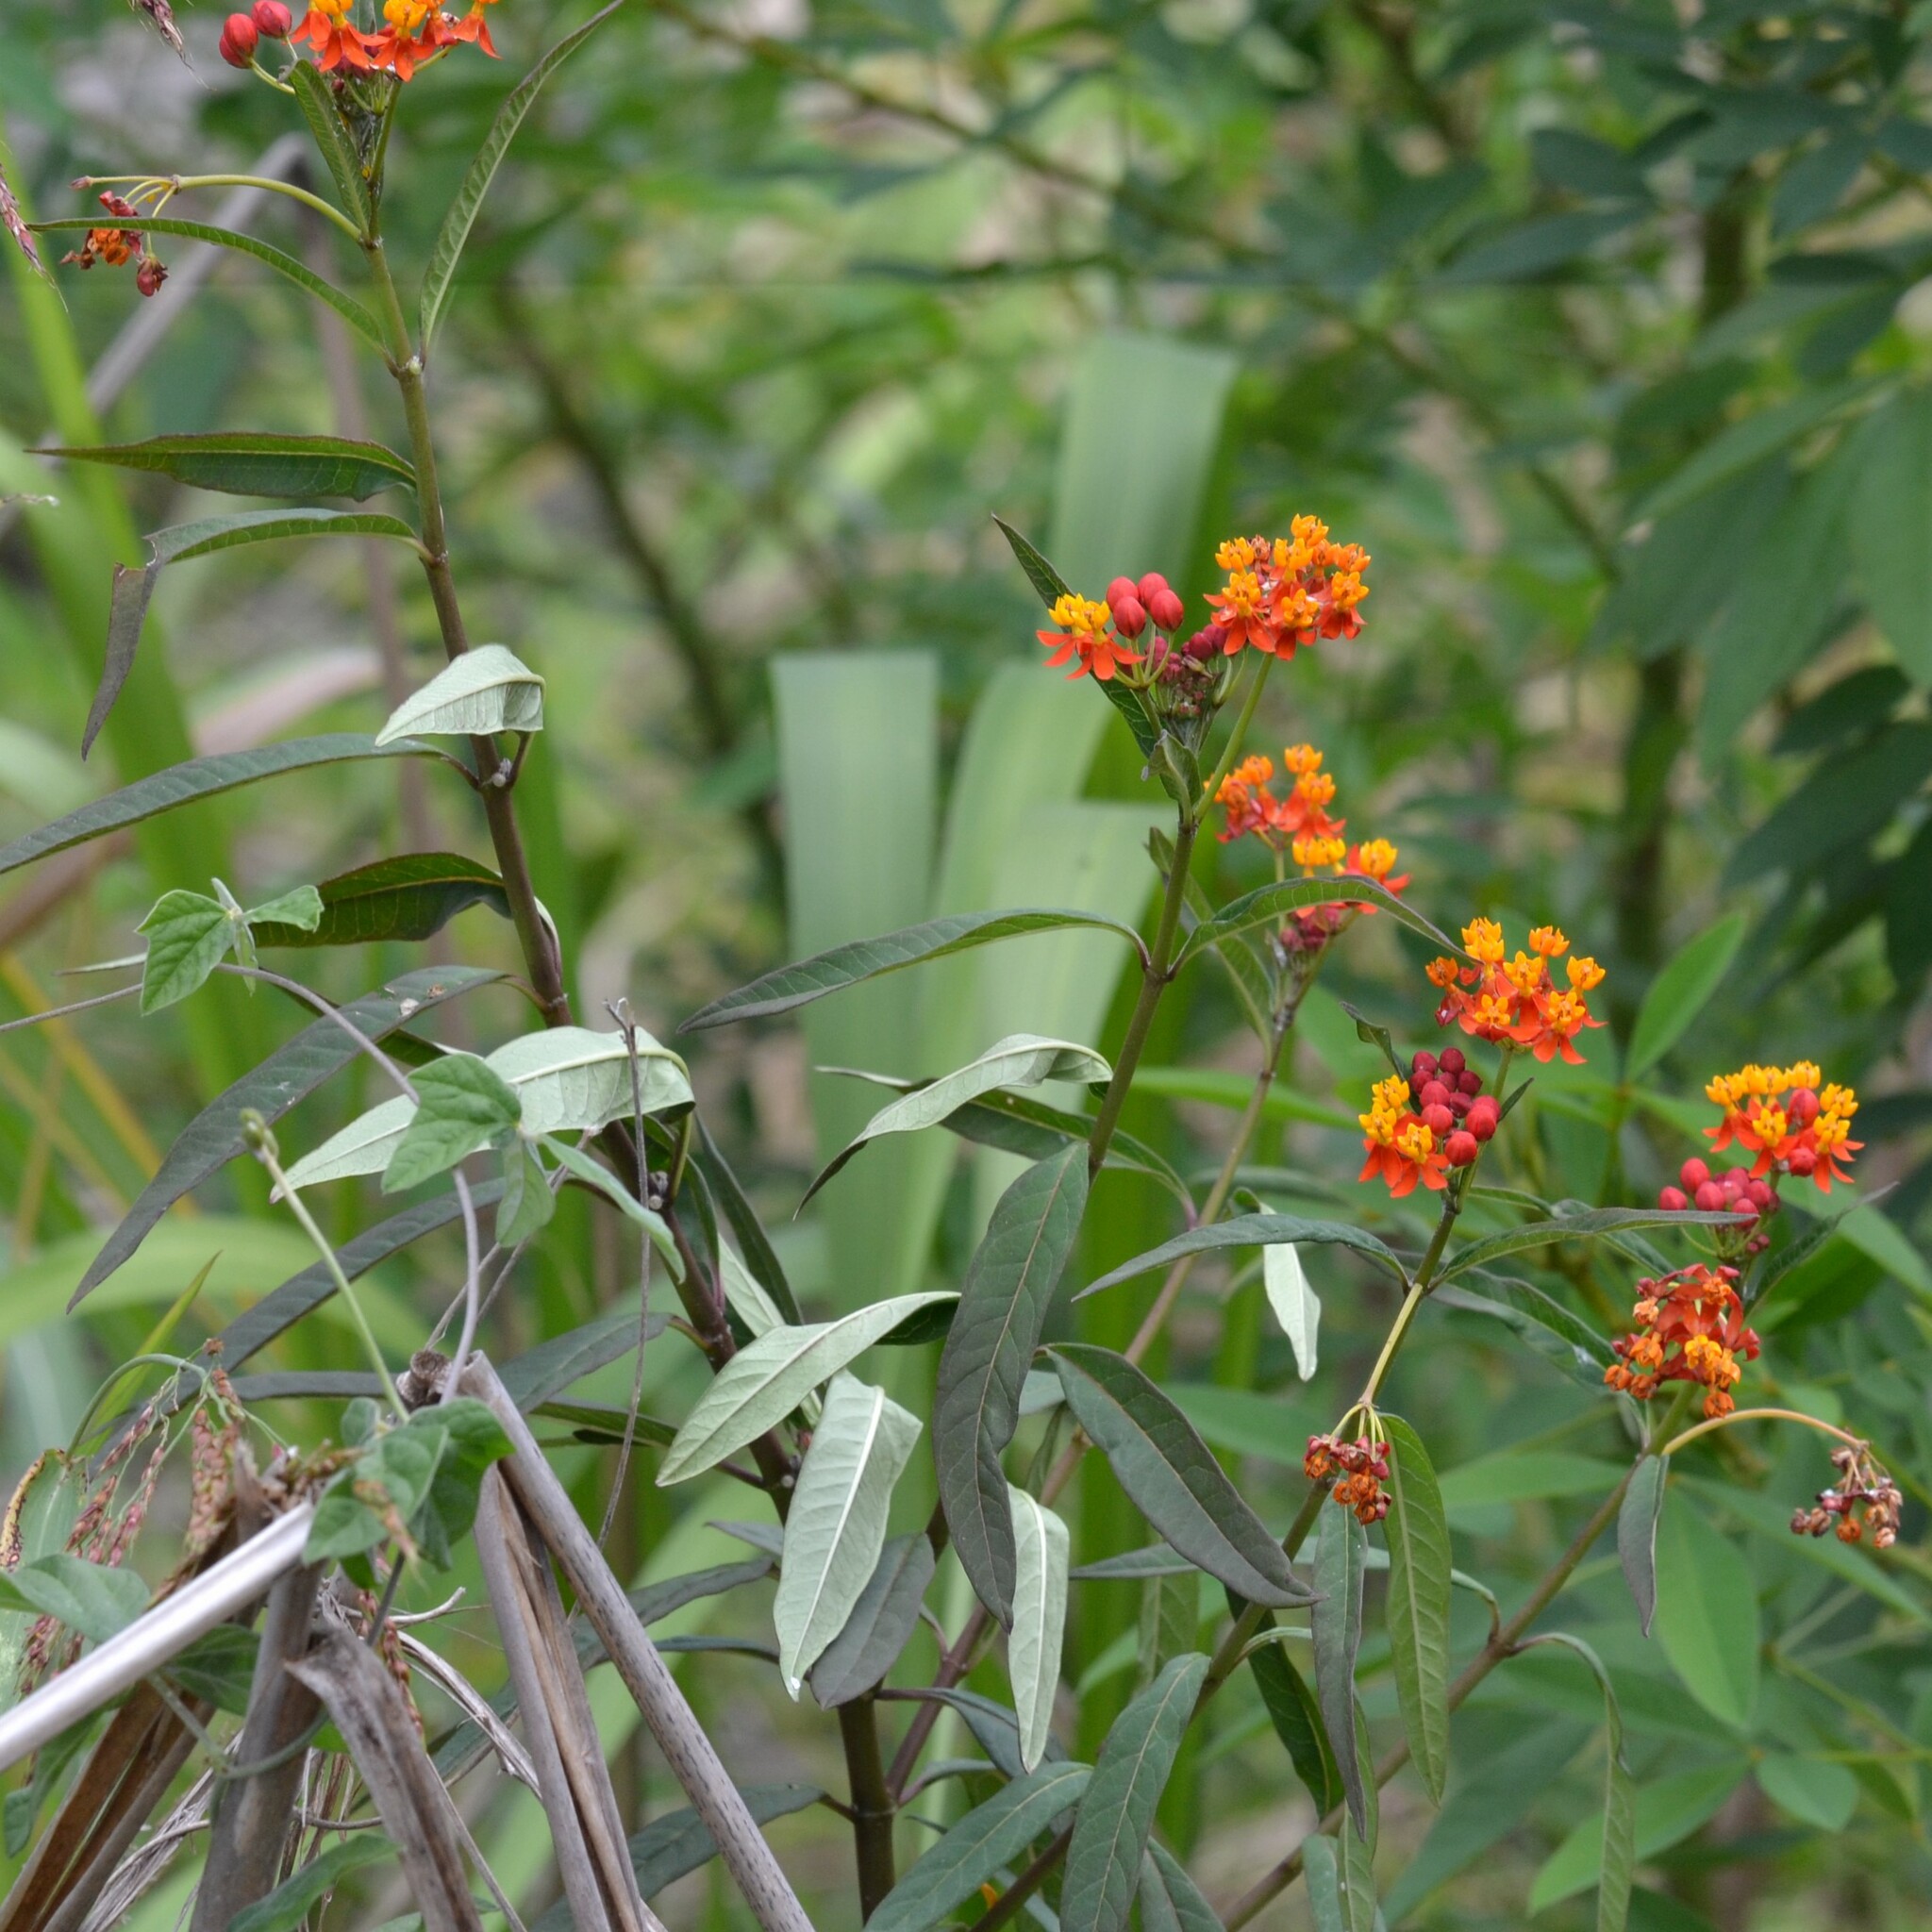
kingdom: Plantae
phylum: Tracheophyta
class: Magnoliopsida
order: Gentianales
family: Apocynaceae
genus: Asclepias
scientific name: Asclepias curassavica
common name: Bloodflower
